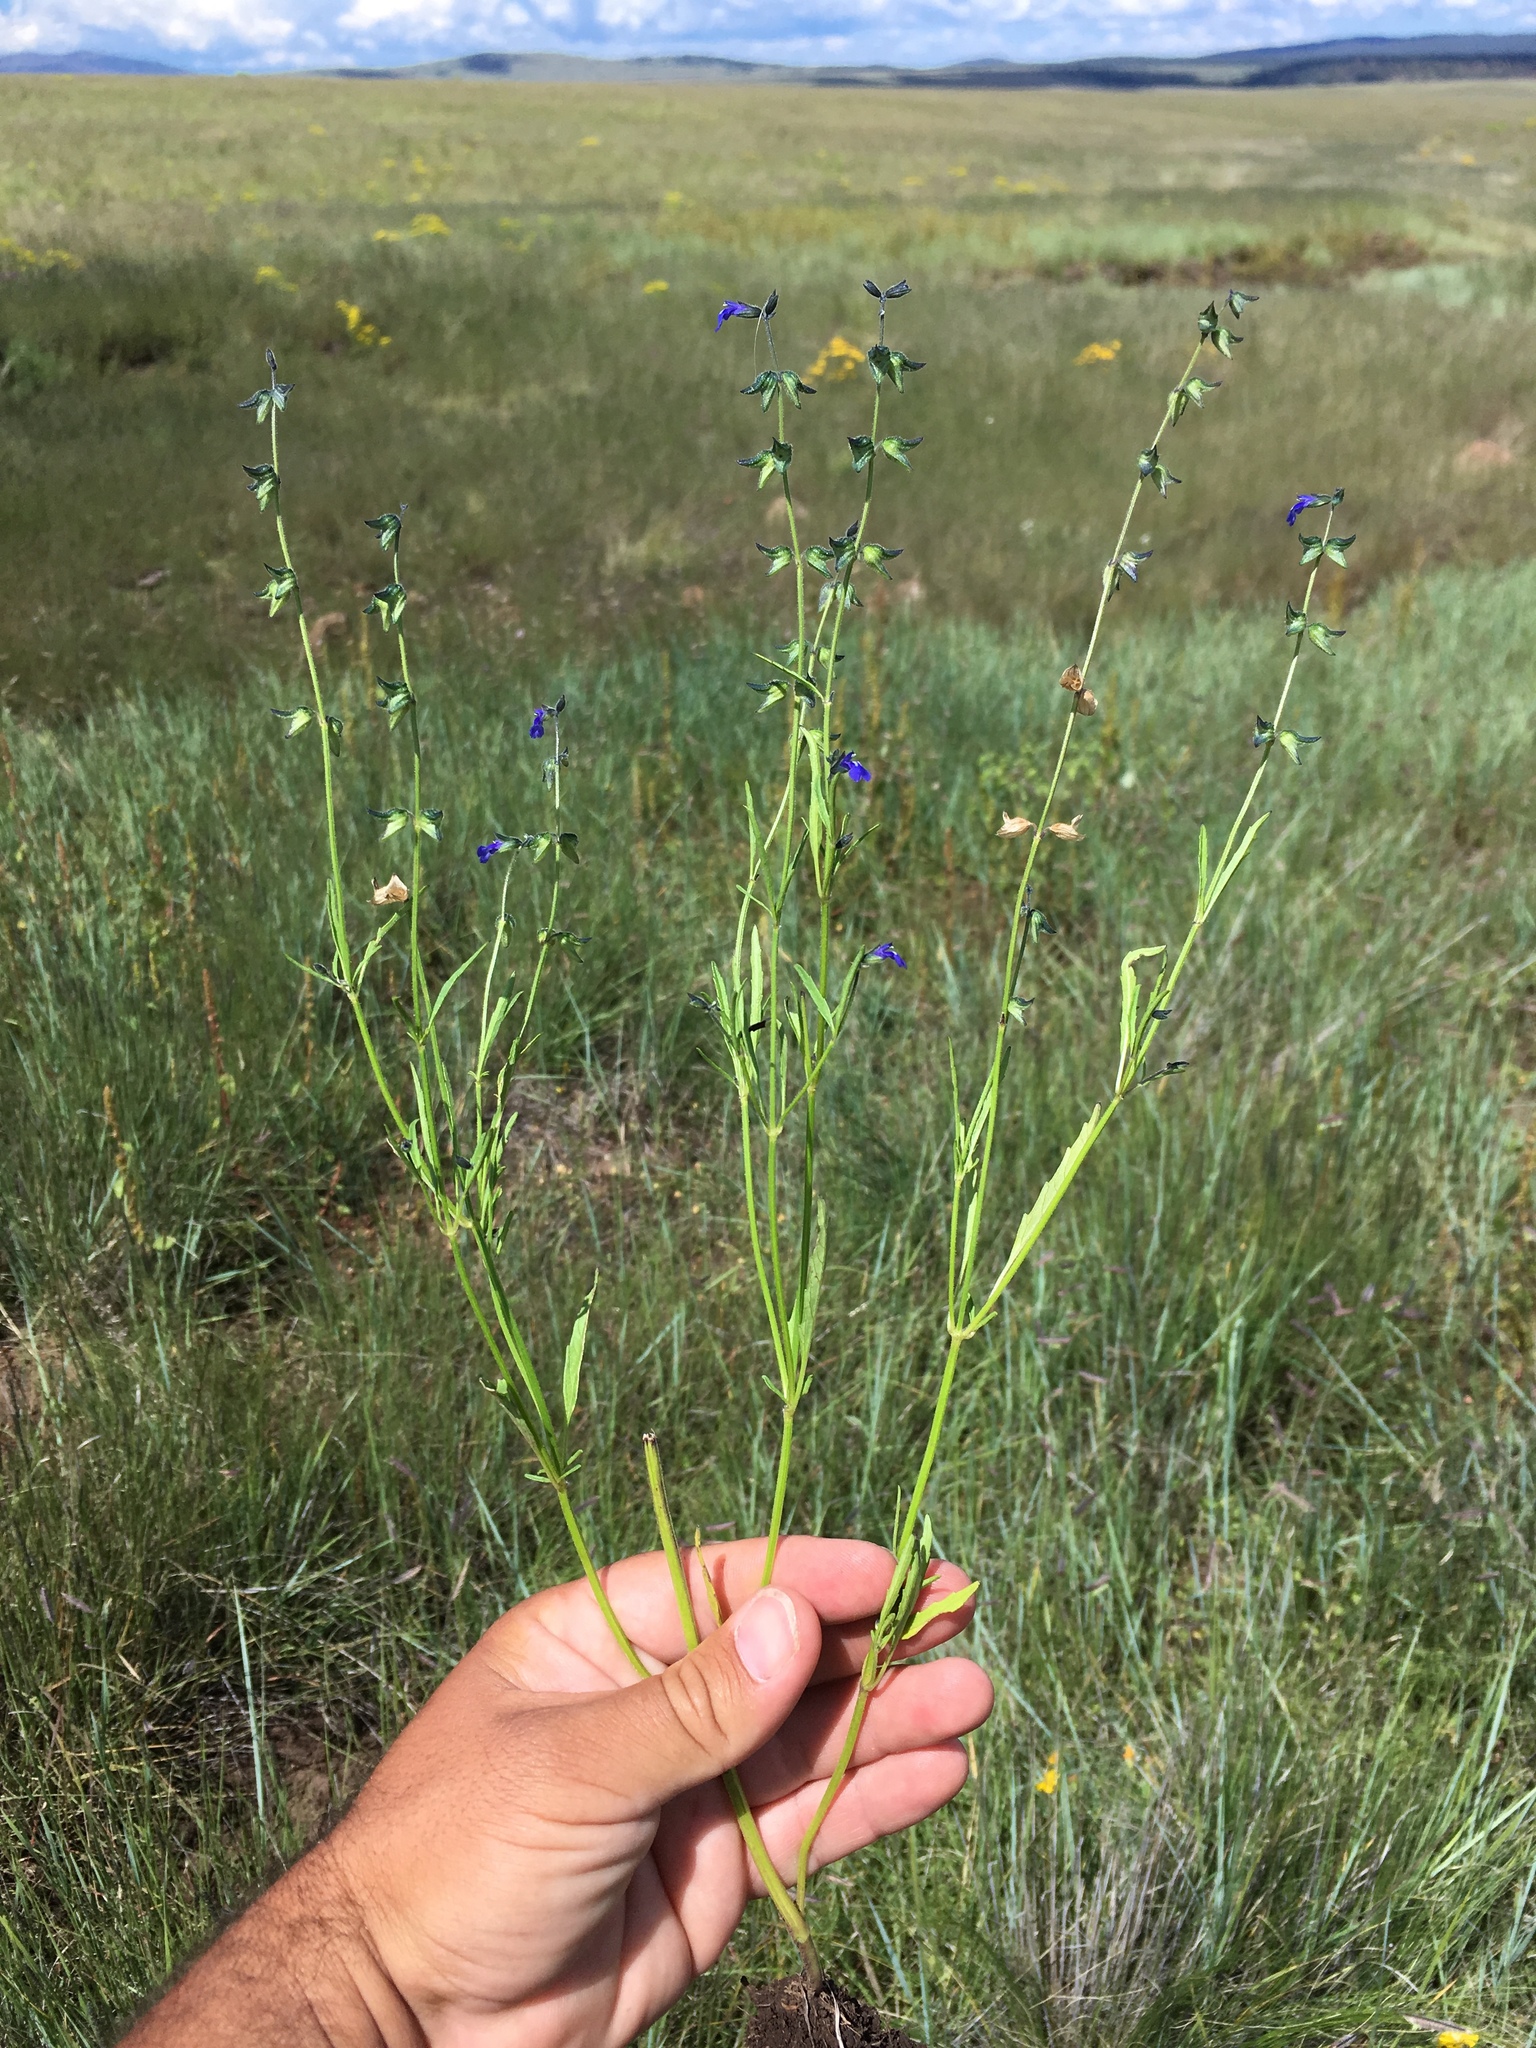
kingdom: Plantae
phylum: Tracheophyta
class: Magnoliopsida
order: Lamiales
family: Lamiaceae
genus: Salvia
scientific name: Salvia subincisa
